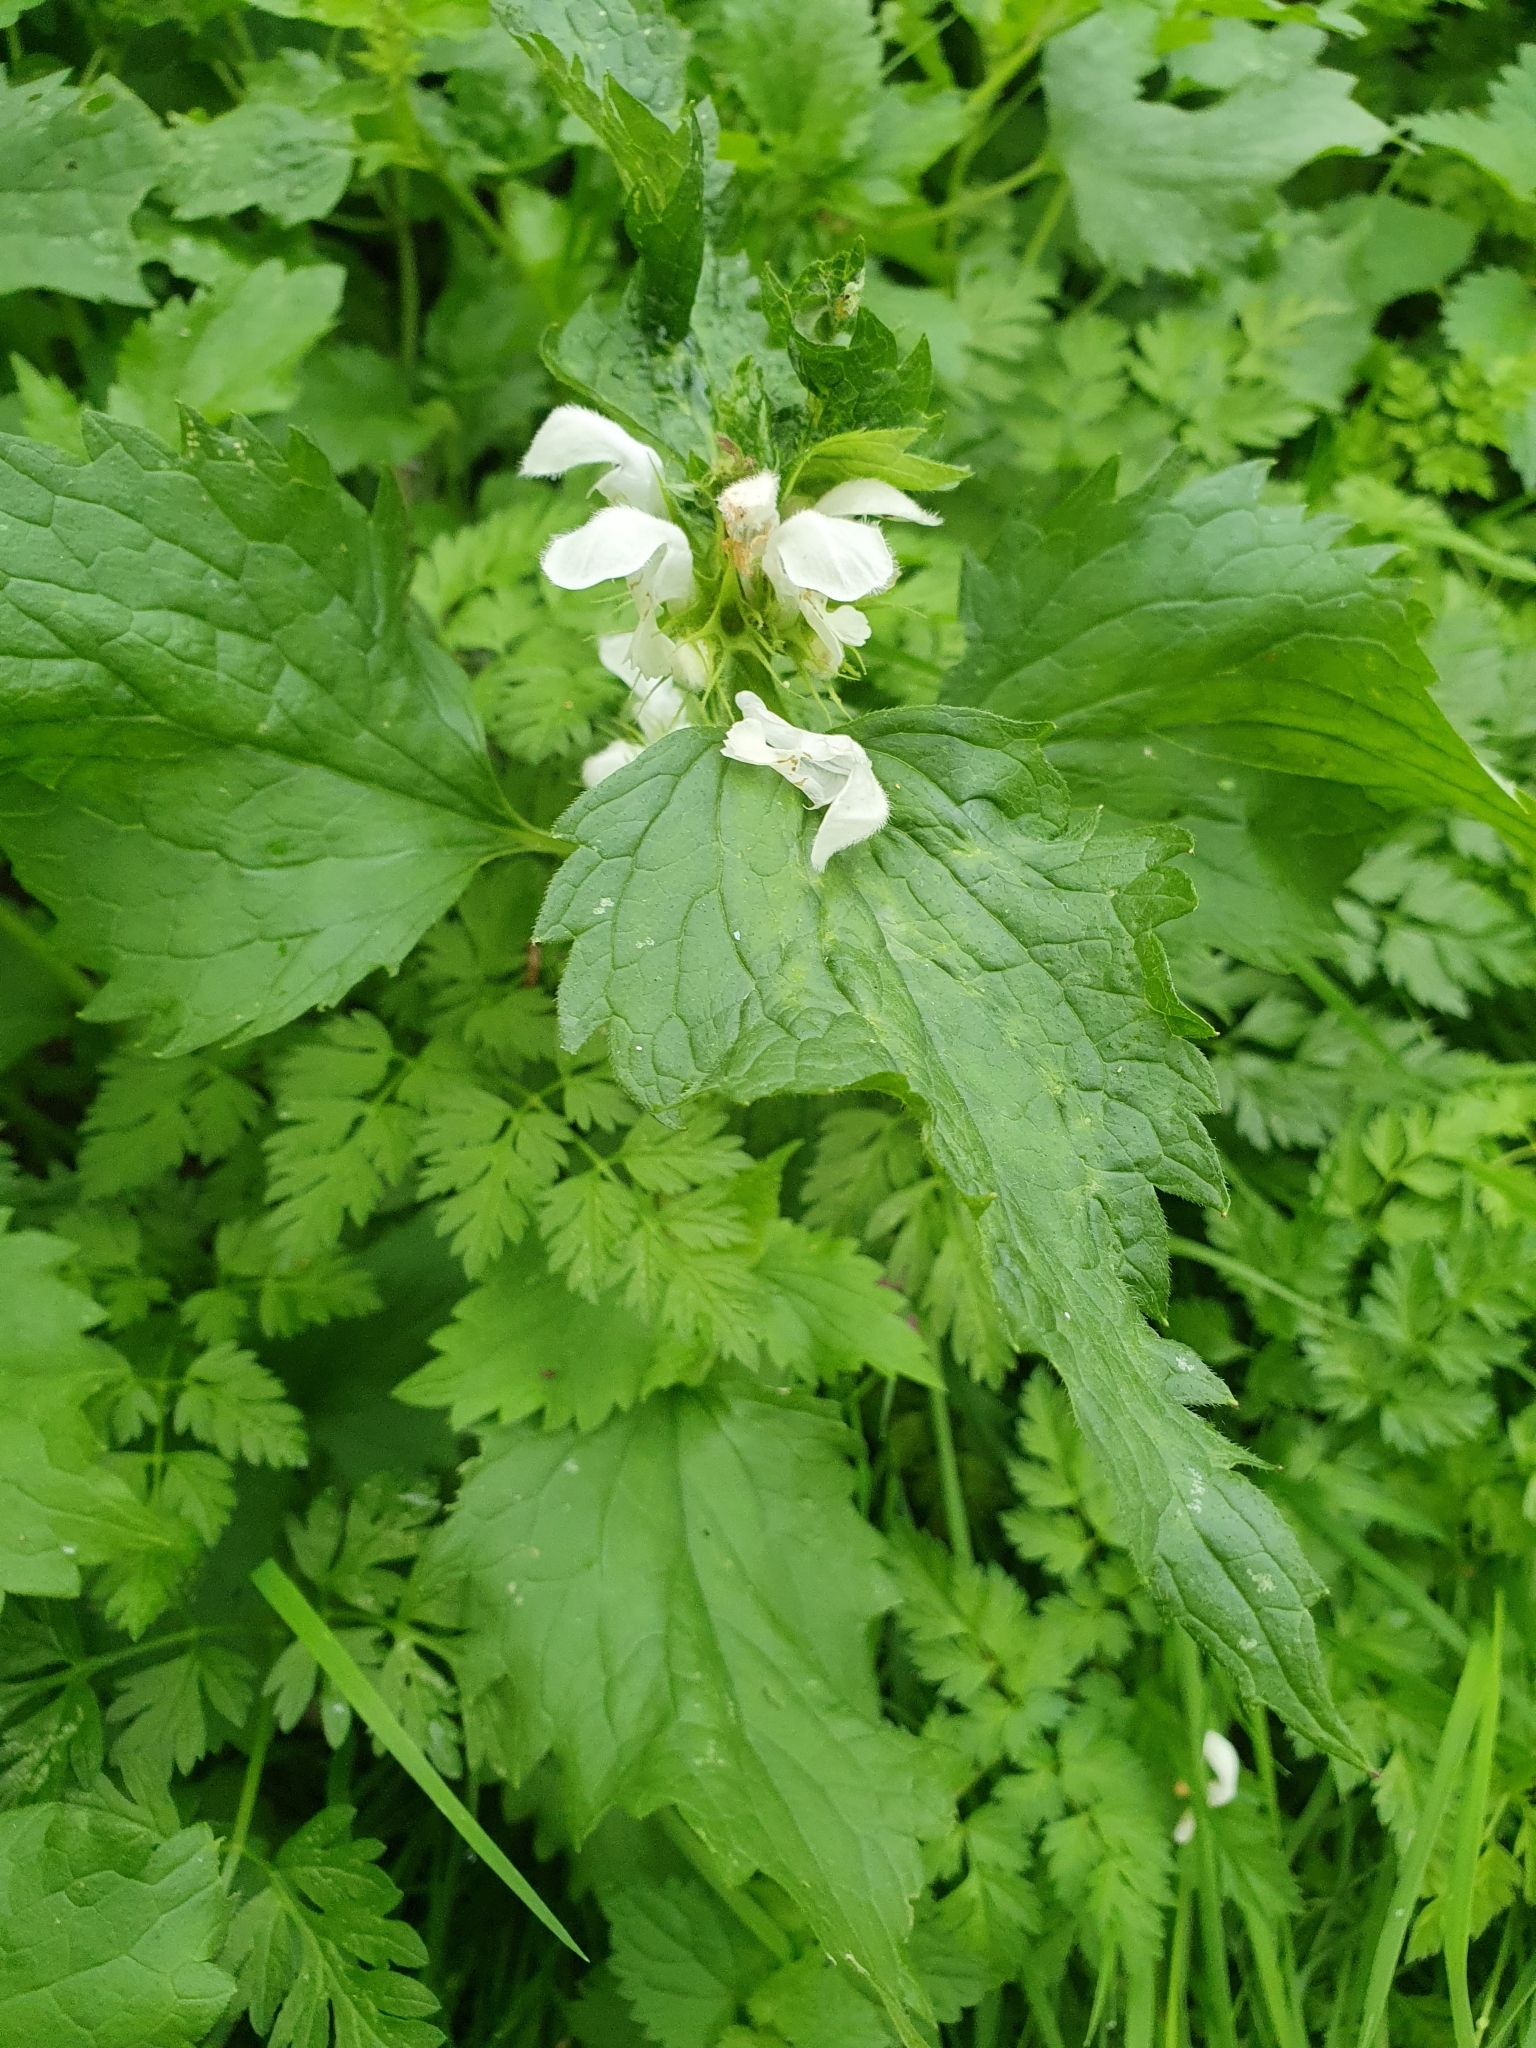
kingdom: Plantae
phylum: Tracheophyta
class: Magnoliopsida
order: Lamiales
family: Lamiaceae
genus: Lamium
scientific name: Lamium album
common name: White dead-nettle
